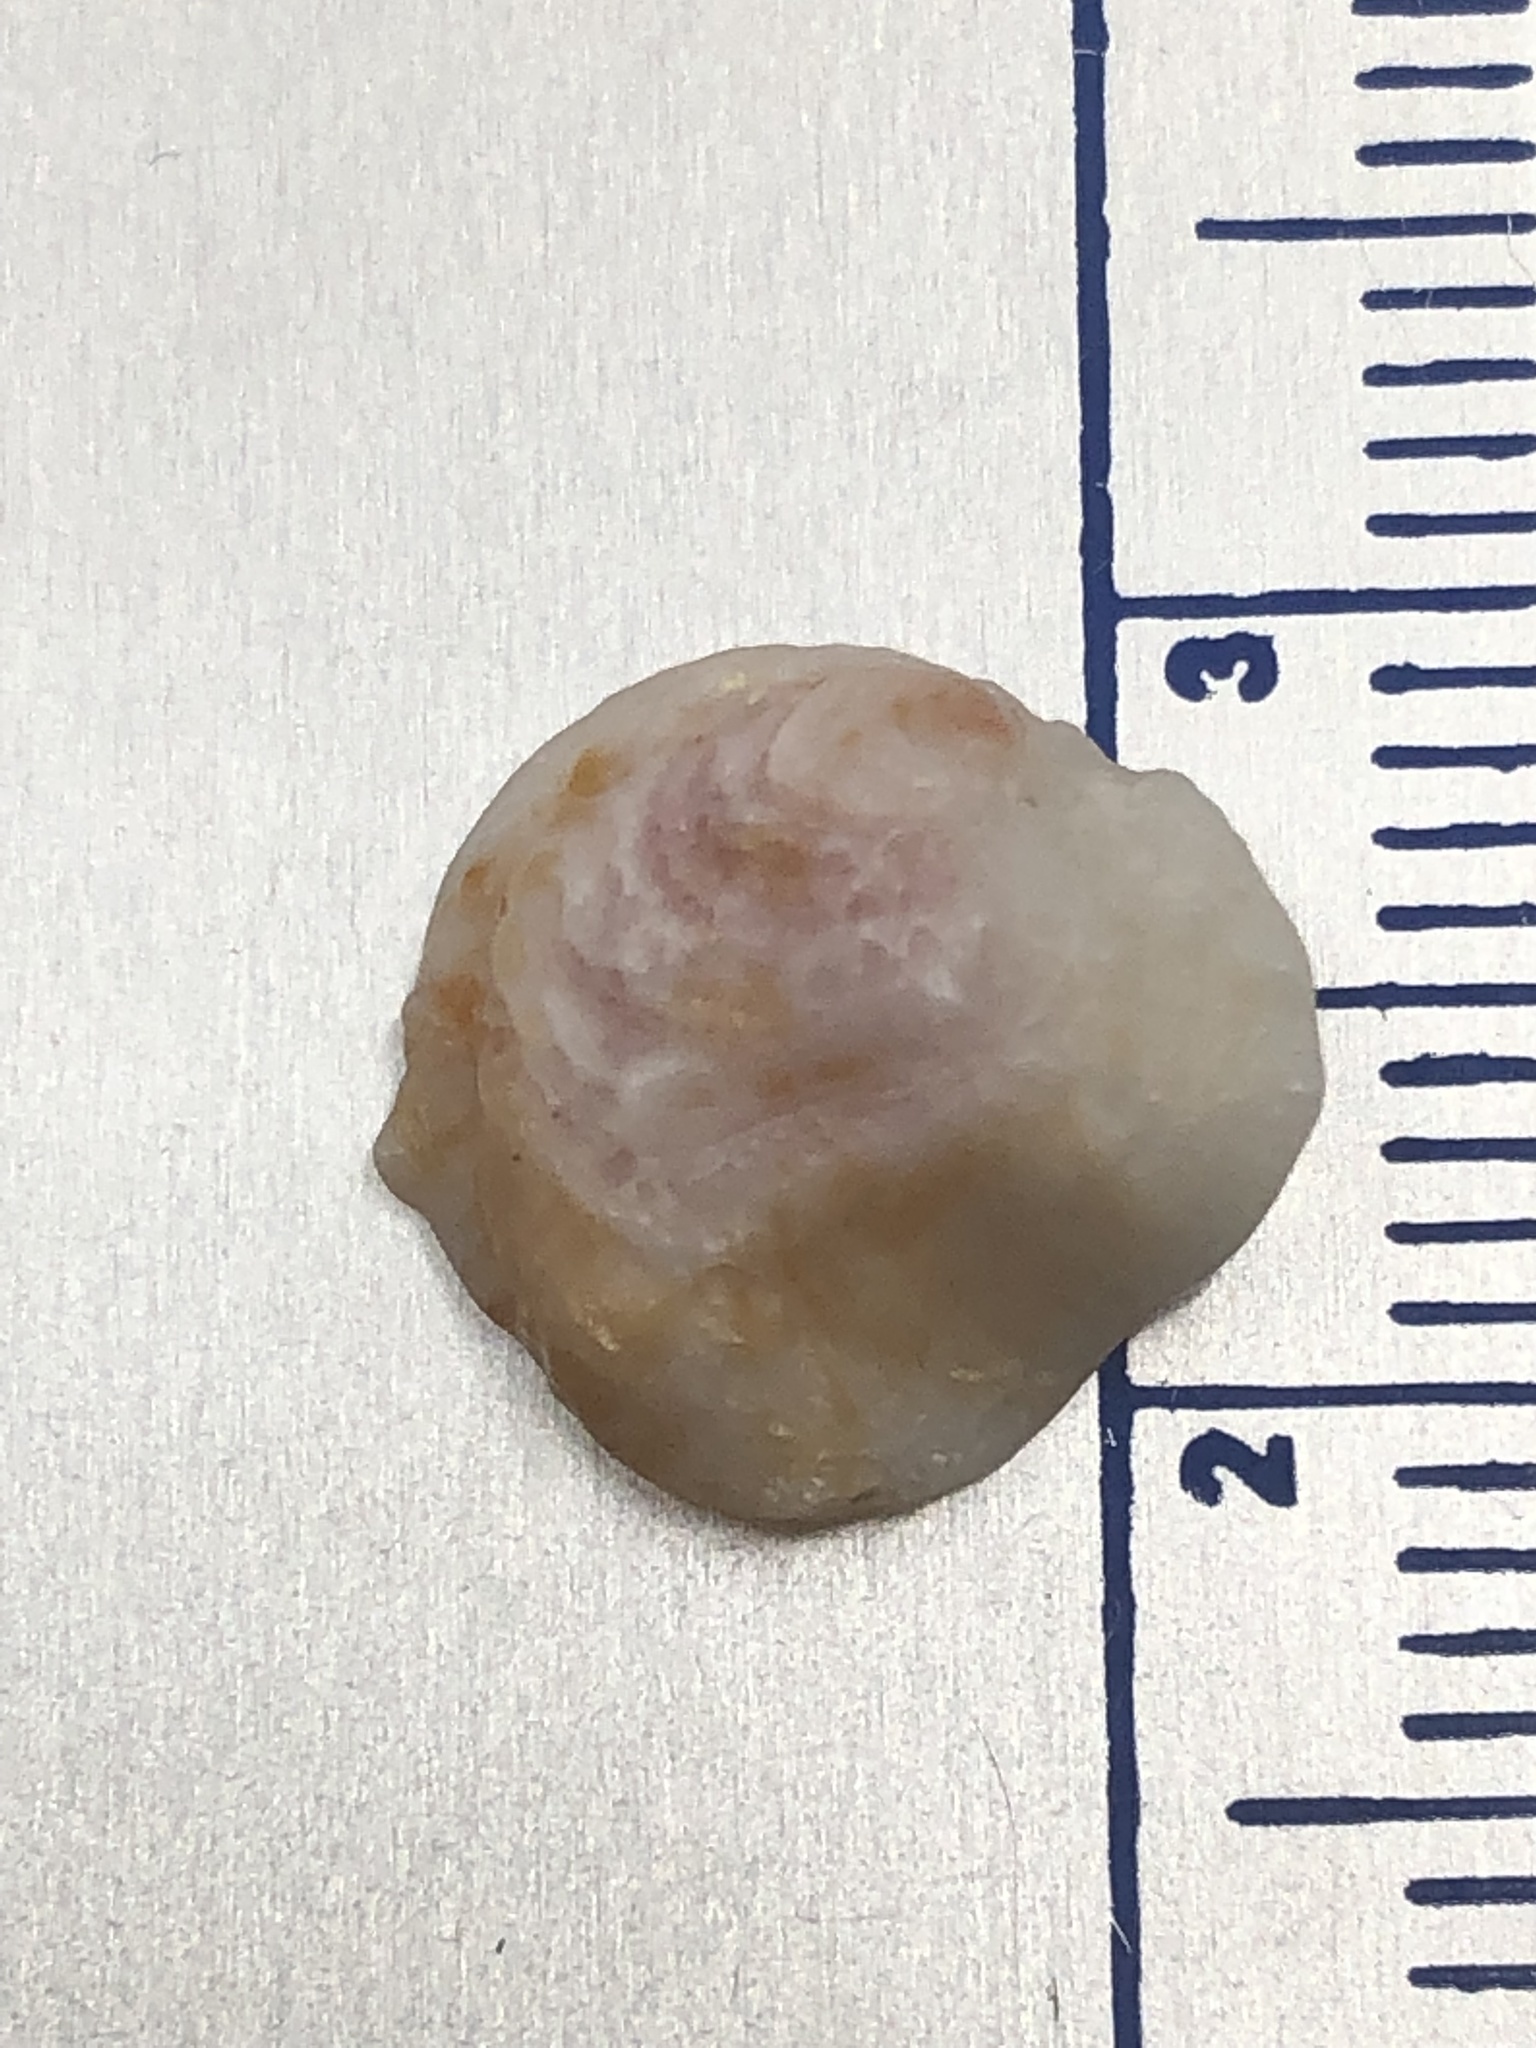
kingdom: Animalia
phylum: Mollusca
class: Bivalvia
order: Venerida
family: Chamidae
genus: Chama
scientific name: Chama congregata
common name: Corrugate jewelbox
